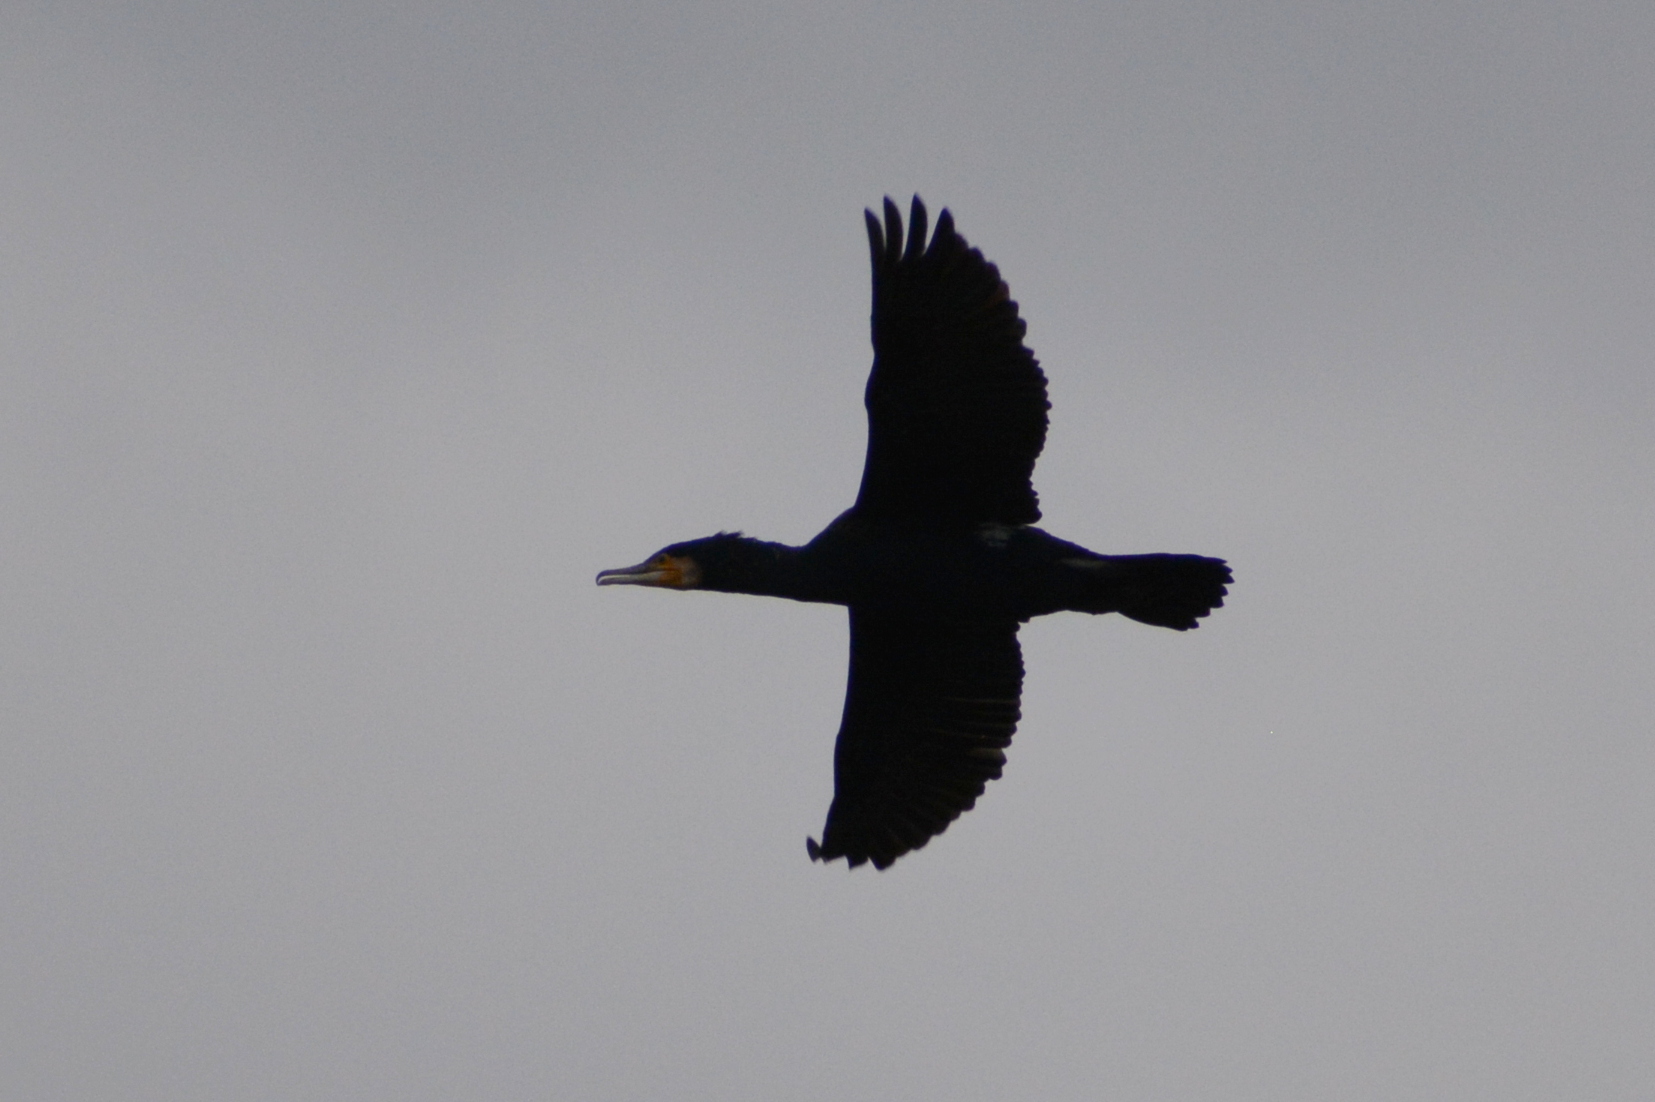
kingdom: Animalia
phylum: Chordata
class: Aves
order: Suliformes
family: Phalacrocoracidae
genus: Phalacrocorax
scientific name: Phalacrocorax carbo
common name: Great cormorant
